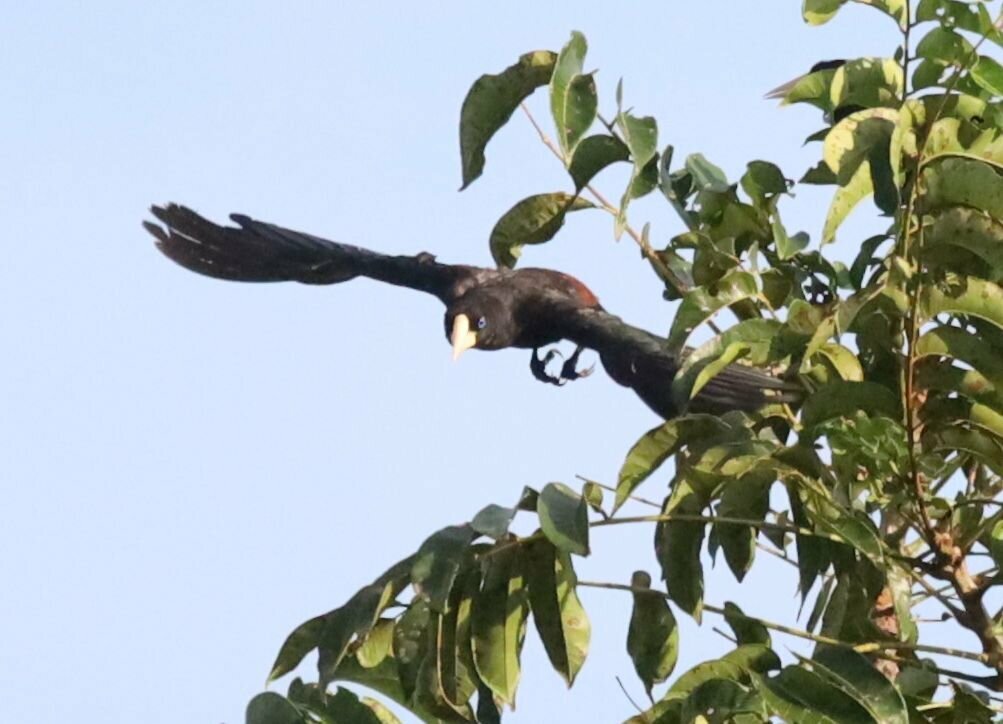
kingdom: Animalia
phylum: Chordata
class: Aves
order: Passeriformes
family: Icteridae
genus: Psarocolius
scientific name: Psarocolius decumanus
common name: Crested oropendola
